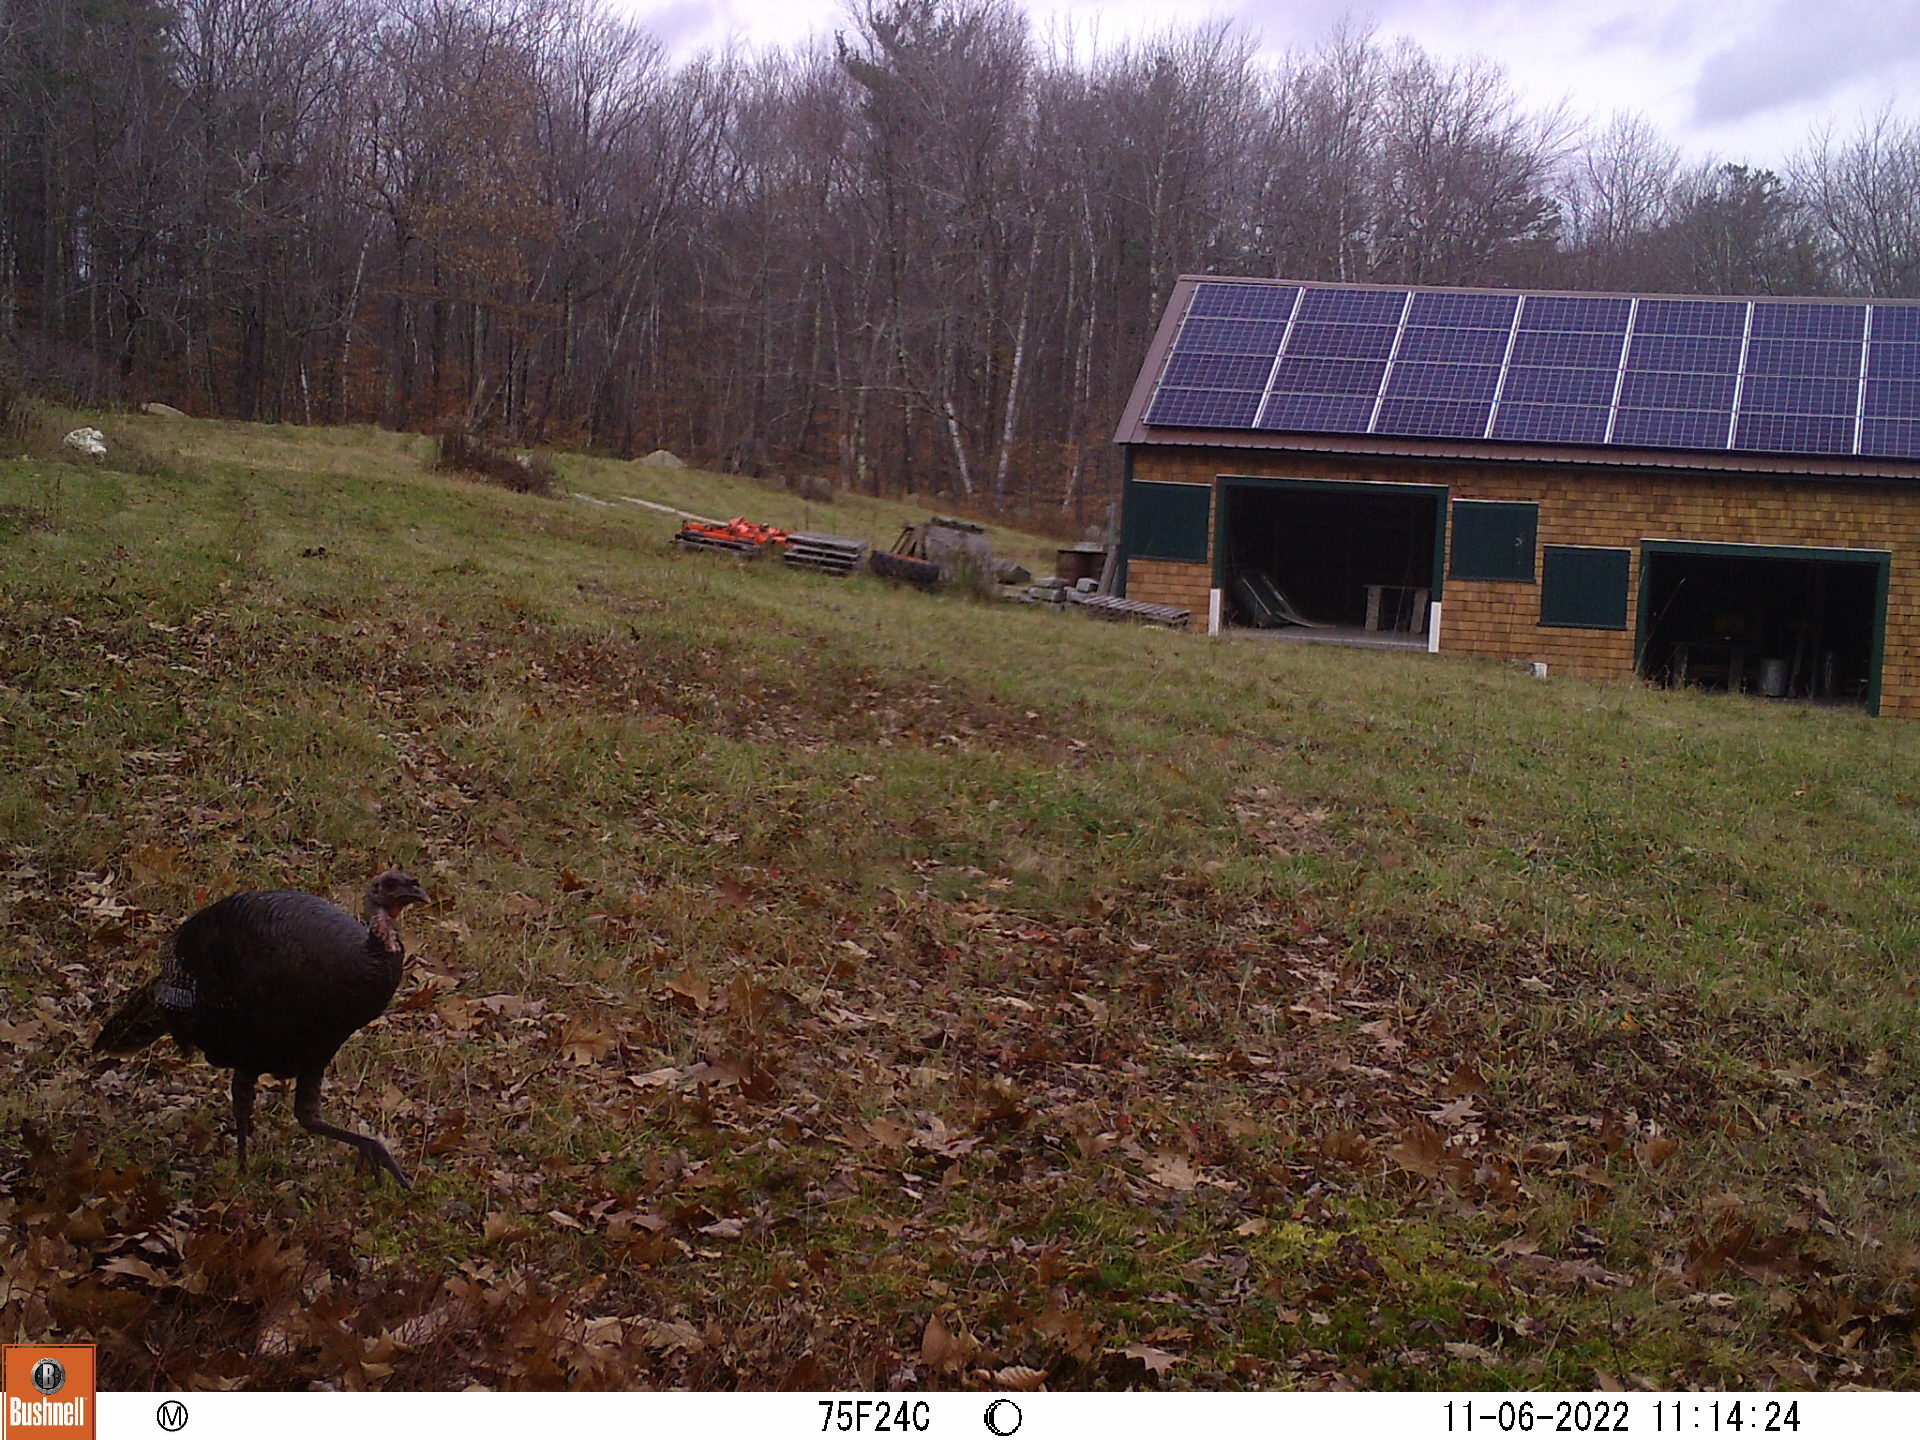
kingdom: Animalia
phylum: Chordata
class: Aves
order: Galliformes
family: Phasianidae
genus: Meleagris
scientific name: Meleagris gallopavo
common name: Wild turkey
